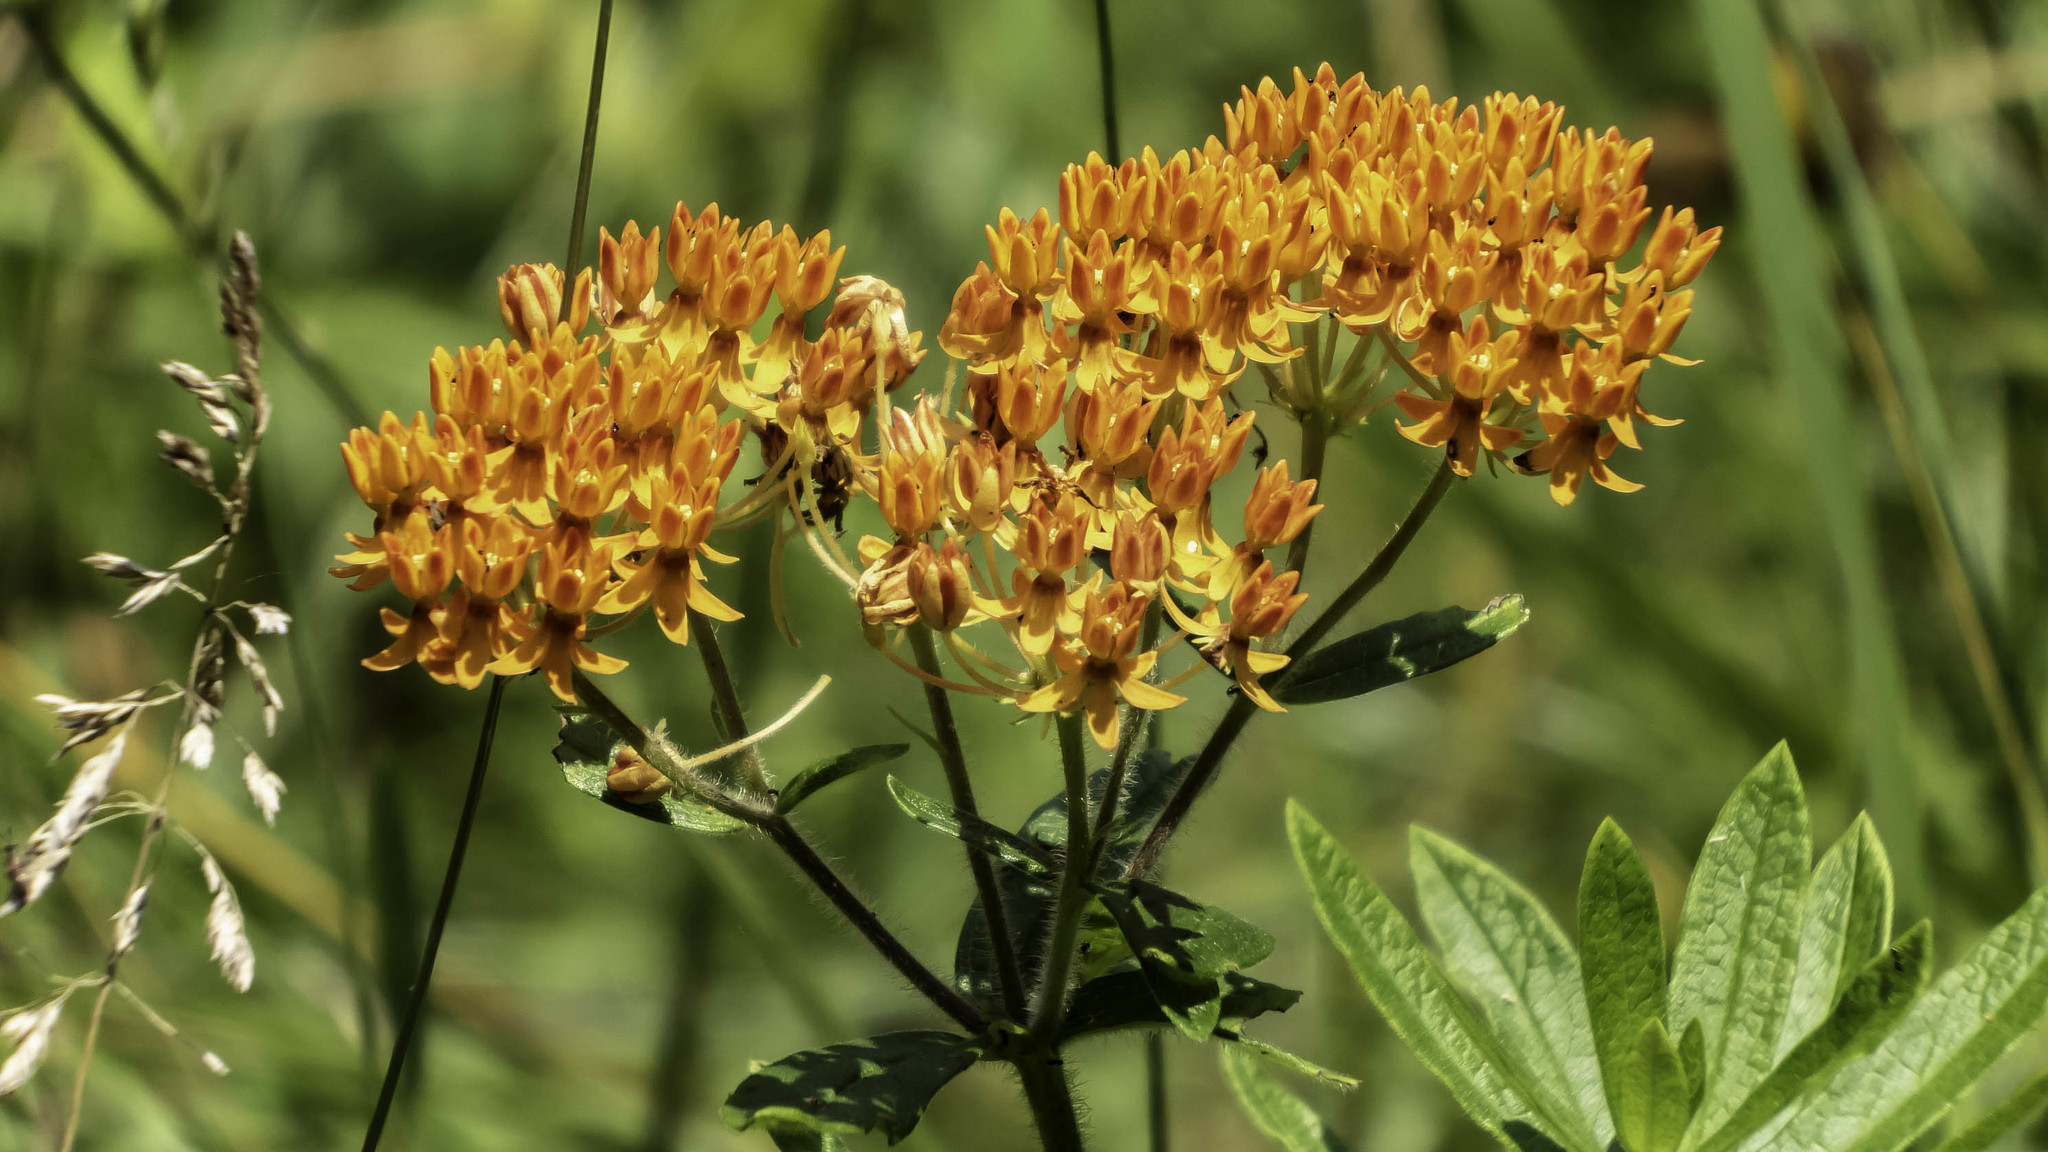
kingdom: Plantae
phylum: Tracheophyta
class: Magnoliopsida
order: Gentianales
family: Apocynaceae
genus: Asclepias
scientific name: Asclepias tuberosa
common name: Butterfly milkweed
